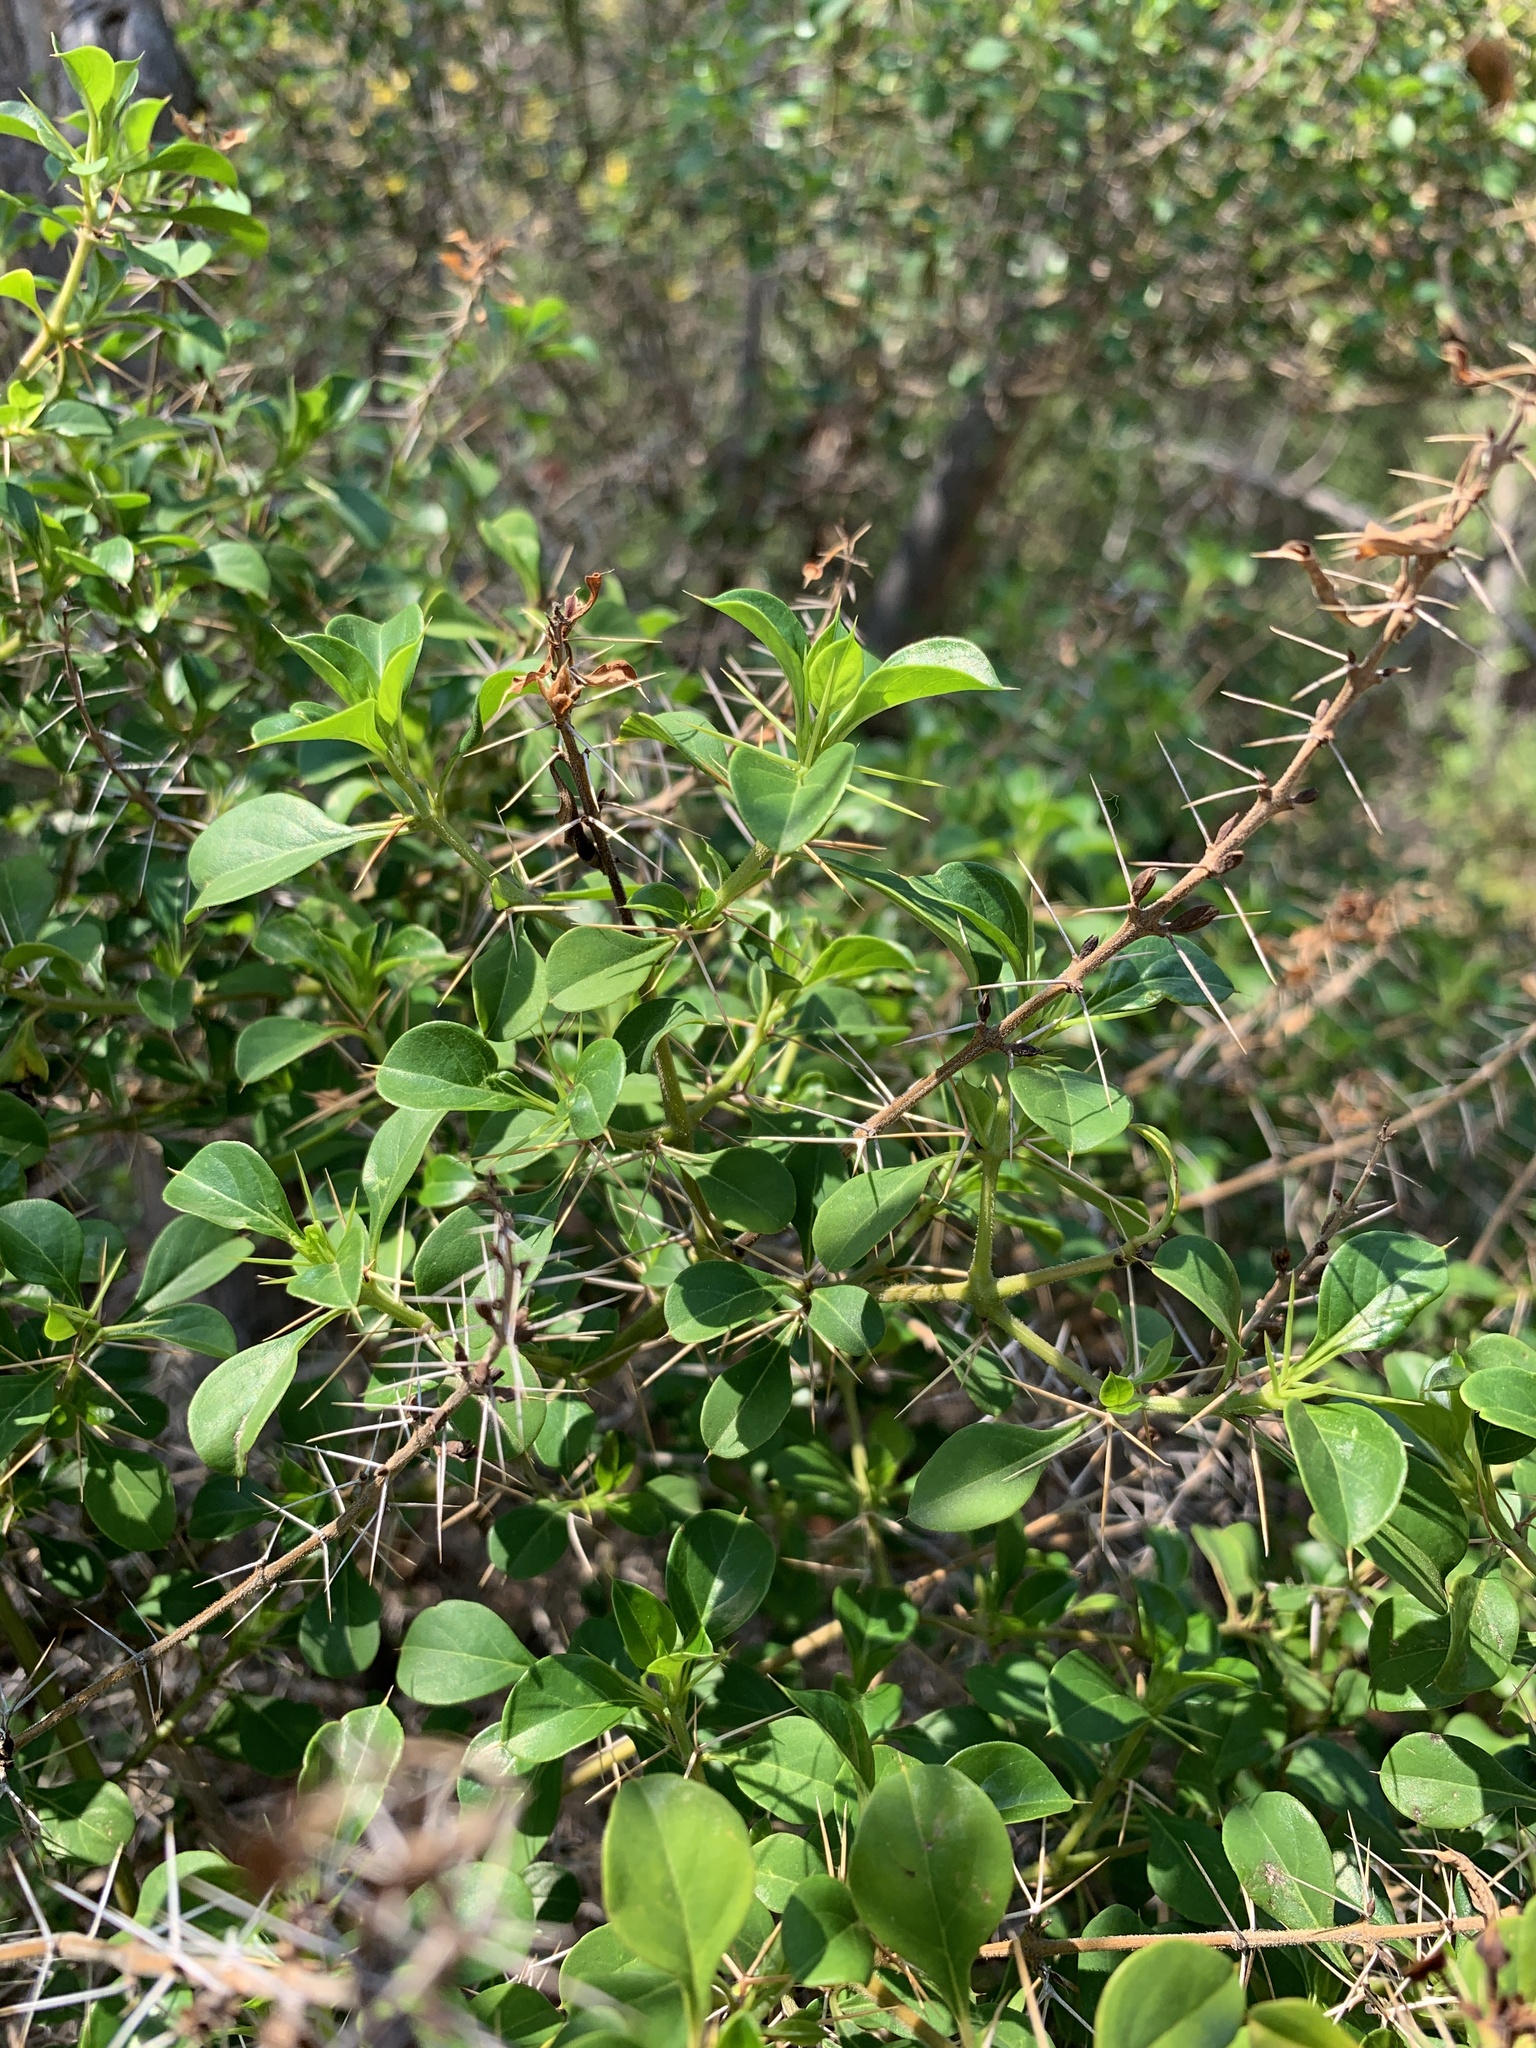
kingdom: Plantae
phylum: Tracheophyta
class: Magnoliopsida
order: Lamiales
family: Acanthaceae
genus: Barleria
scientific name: Barleria rotundifolia
